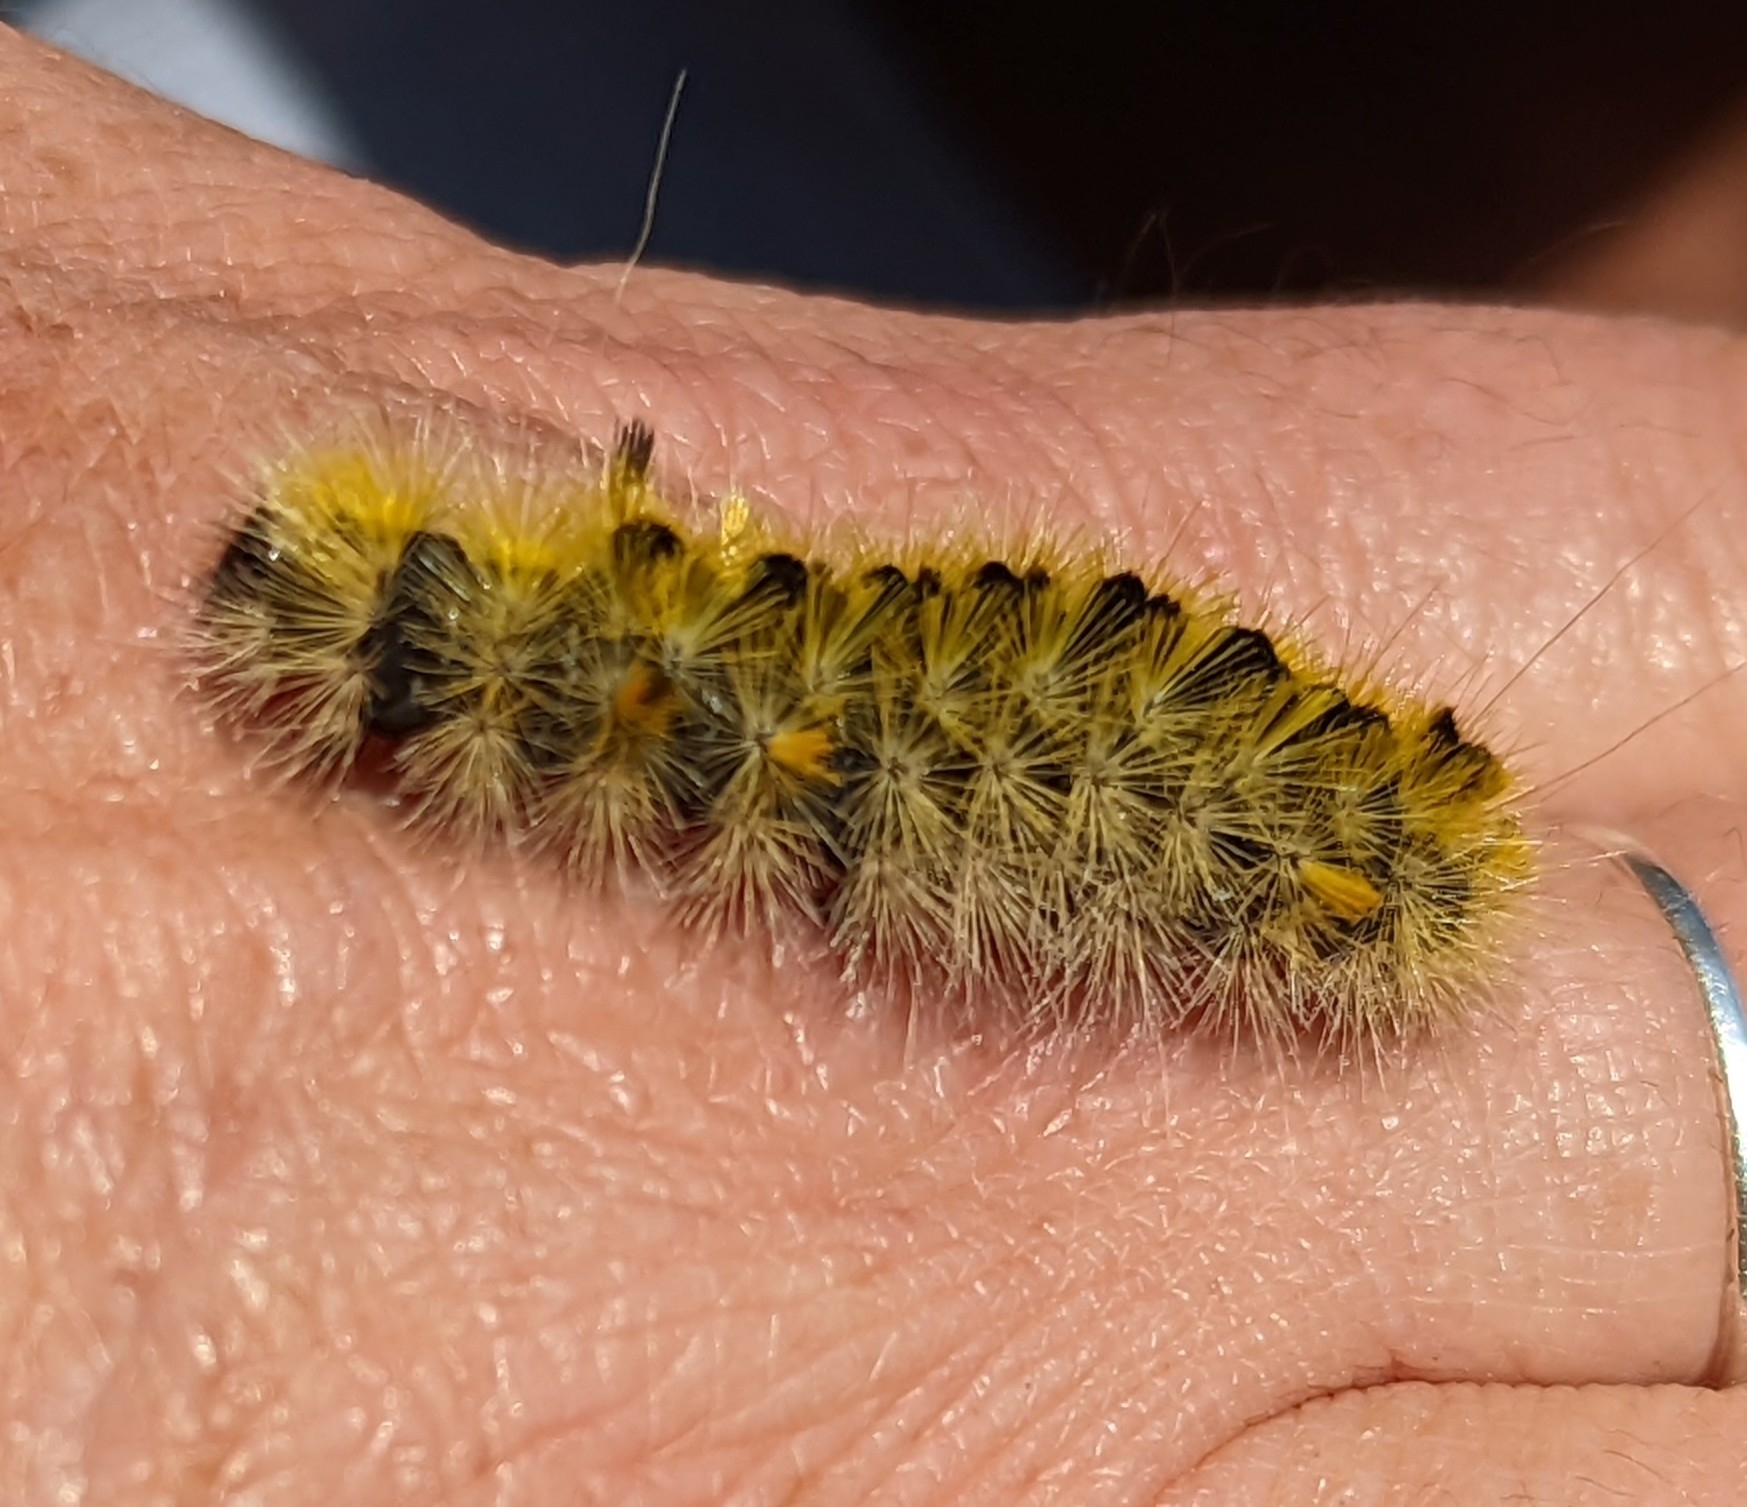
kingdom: Animalia
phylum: Arthropoda
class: Insecta
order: Lepidoptera
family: Erebidae
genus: Lophocampa
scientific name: Lophocampa argentata
